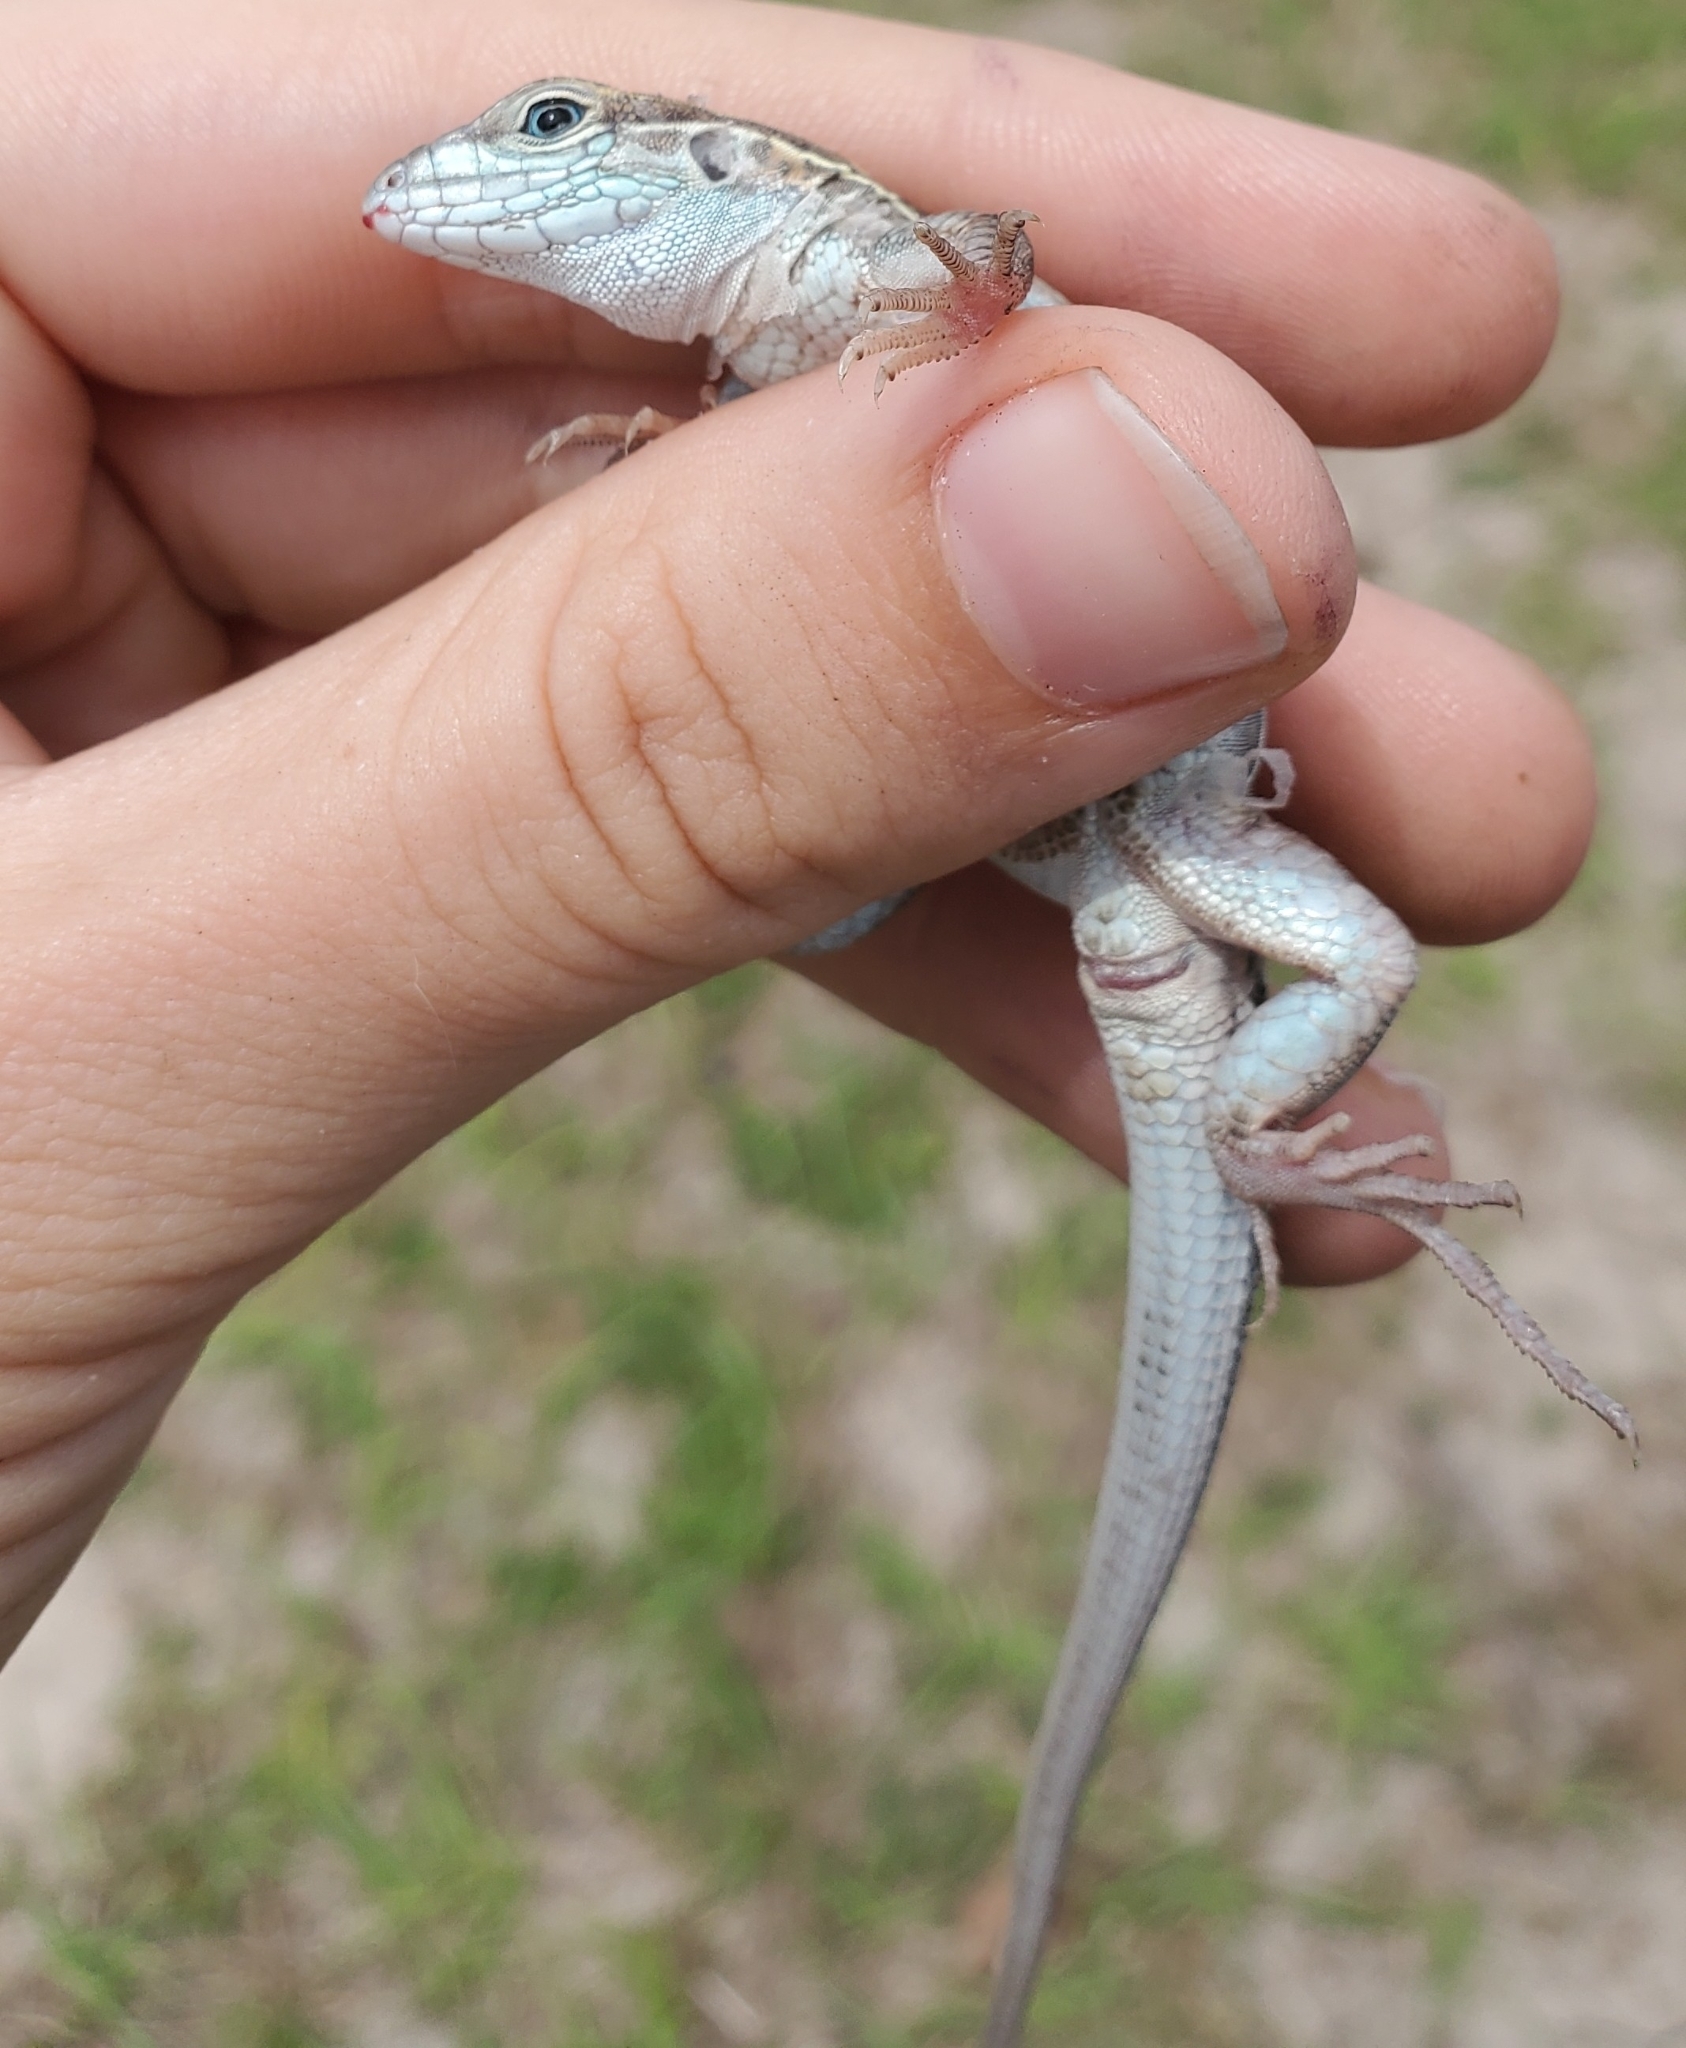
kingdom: Animalia
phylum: Chordata
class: Squamata
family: Teiidae
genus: Aspidoscelis
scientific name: Aspidoscelis sexlineatus
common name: Six-lined racerunner
